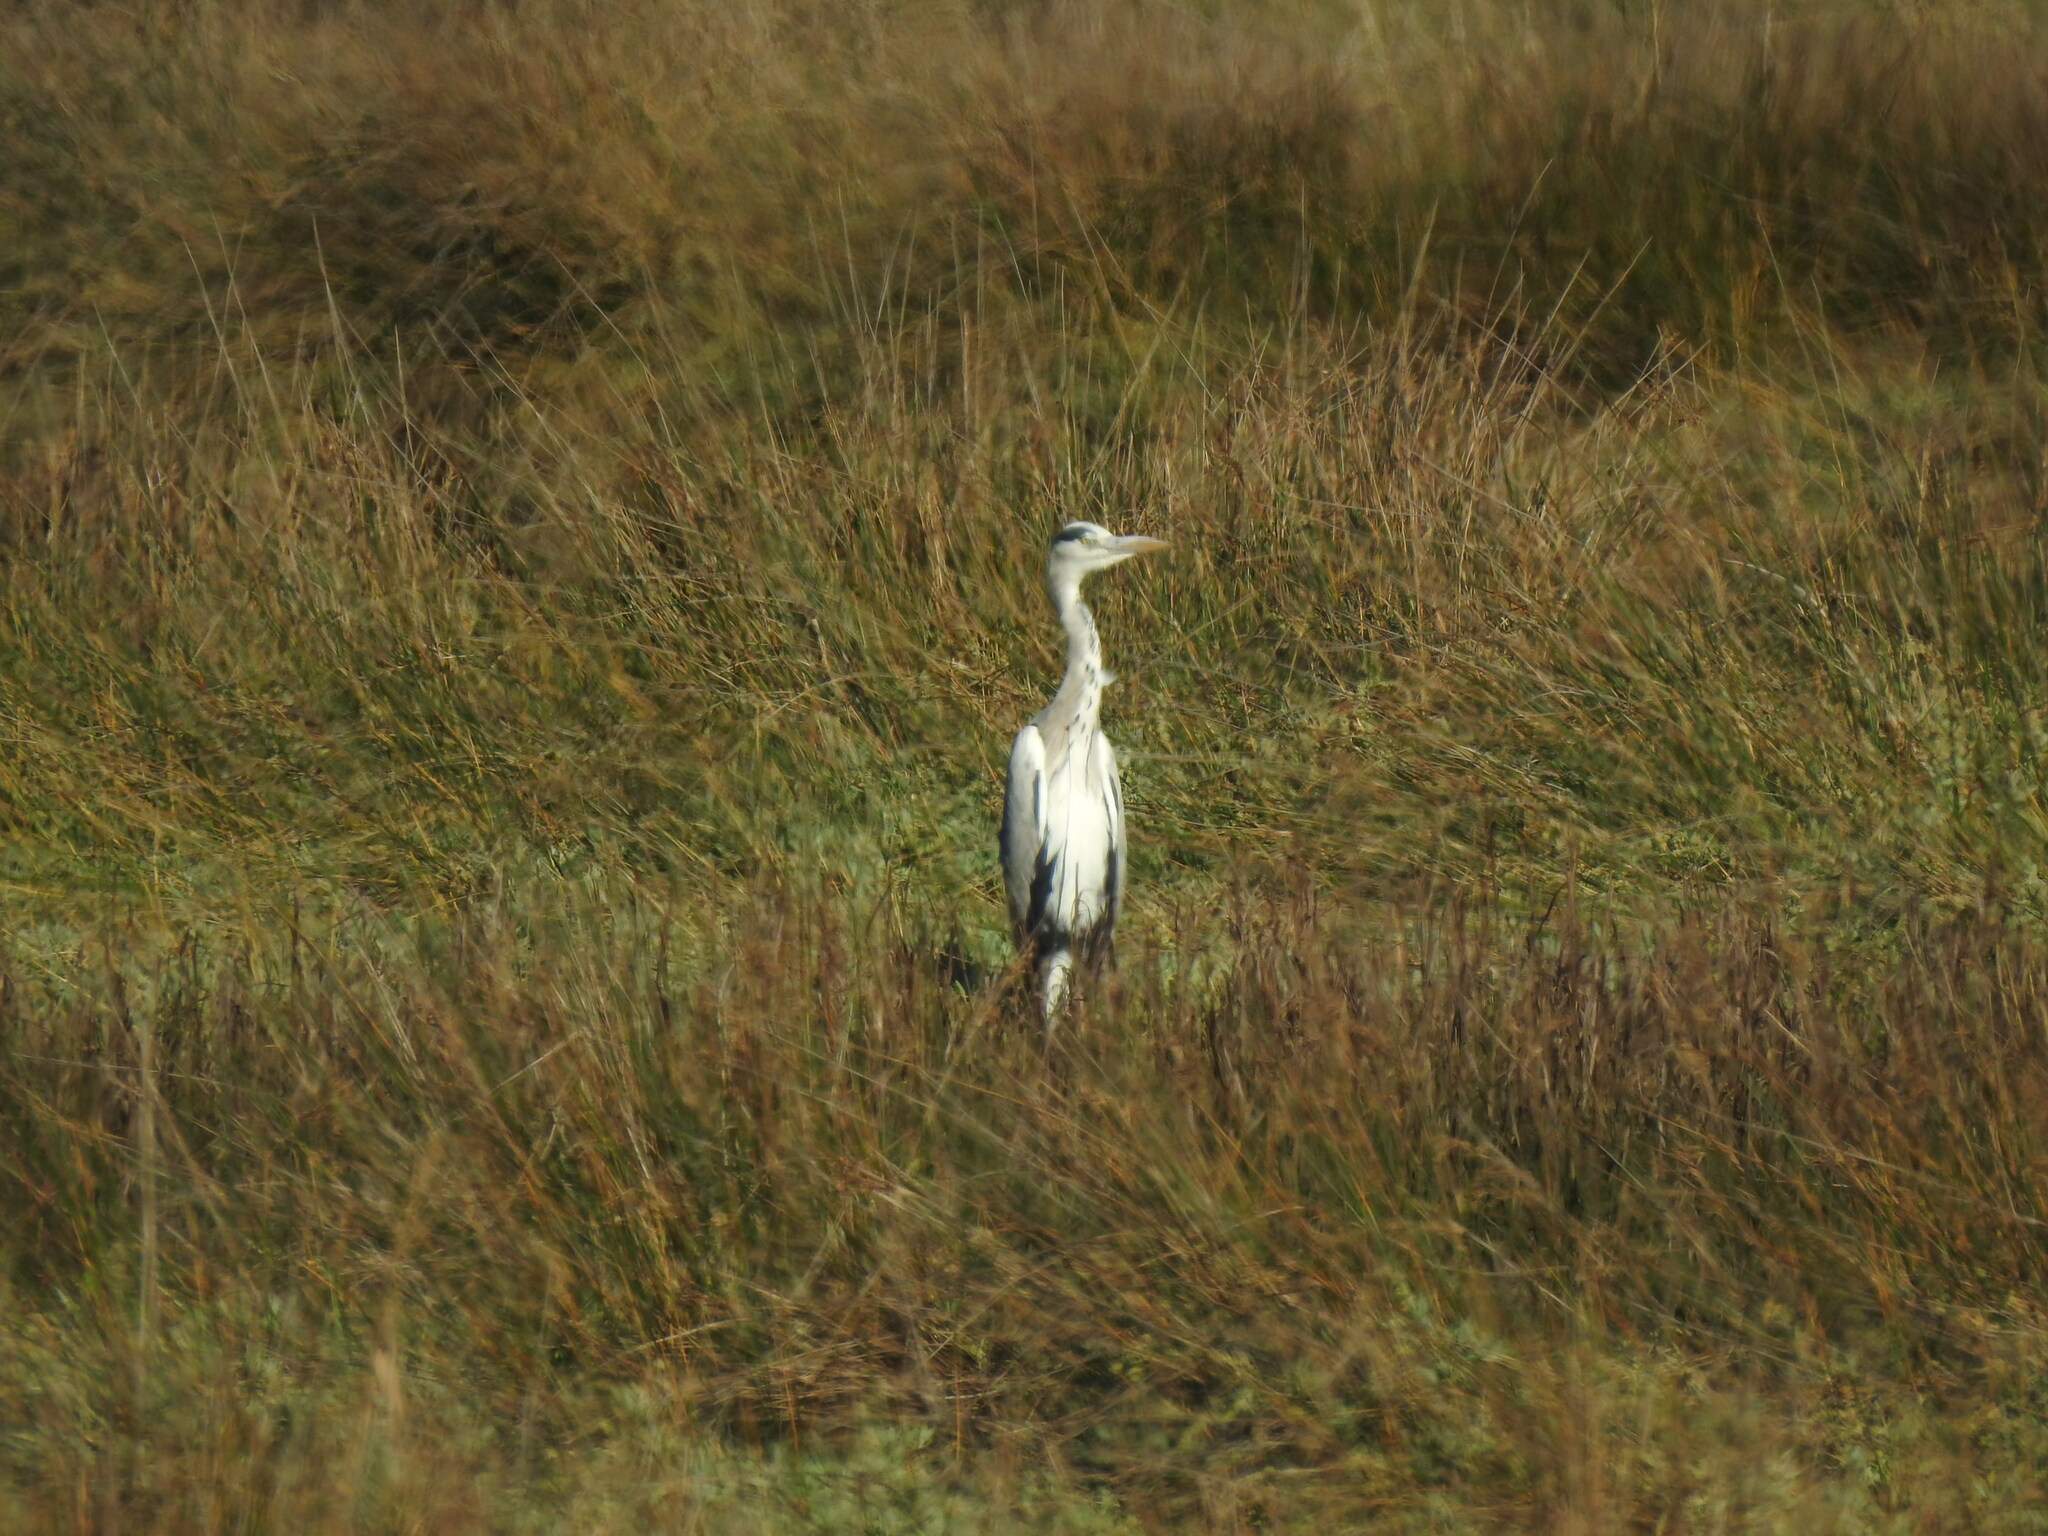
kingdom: Animalia
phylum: Chordata
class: Aves
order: Pelecaniformes
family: Ardeidae
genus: Ardea
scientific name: Ardea cinerea
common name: Grey heron
